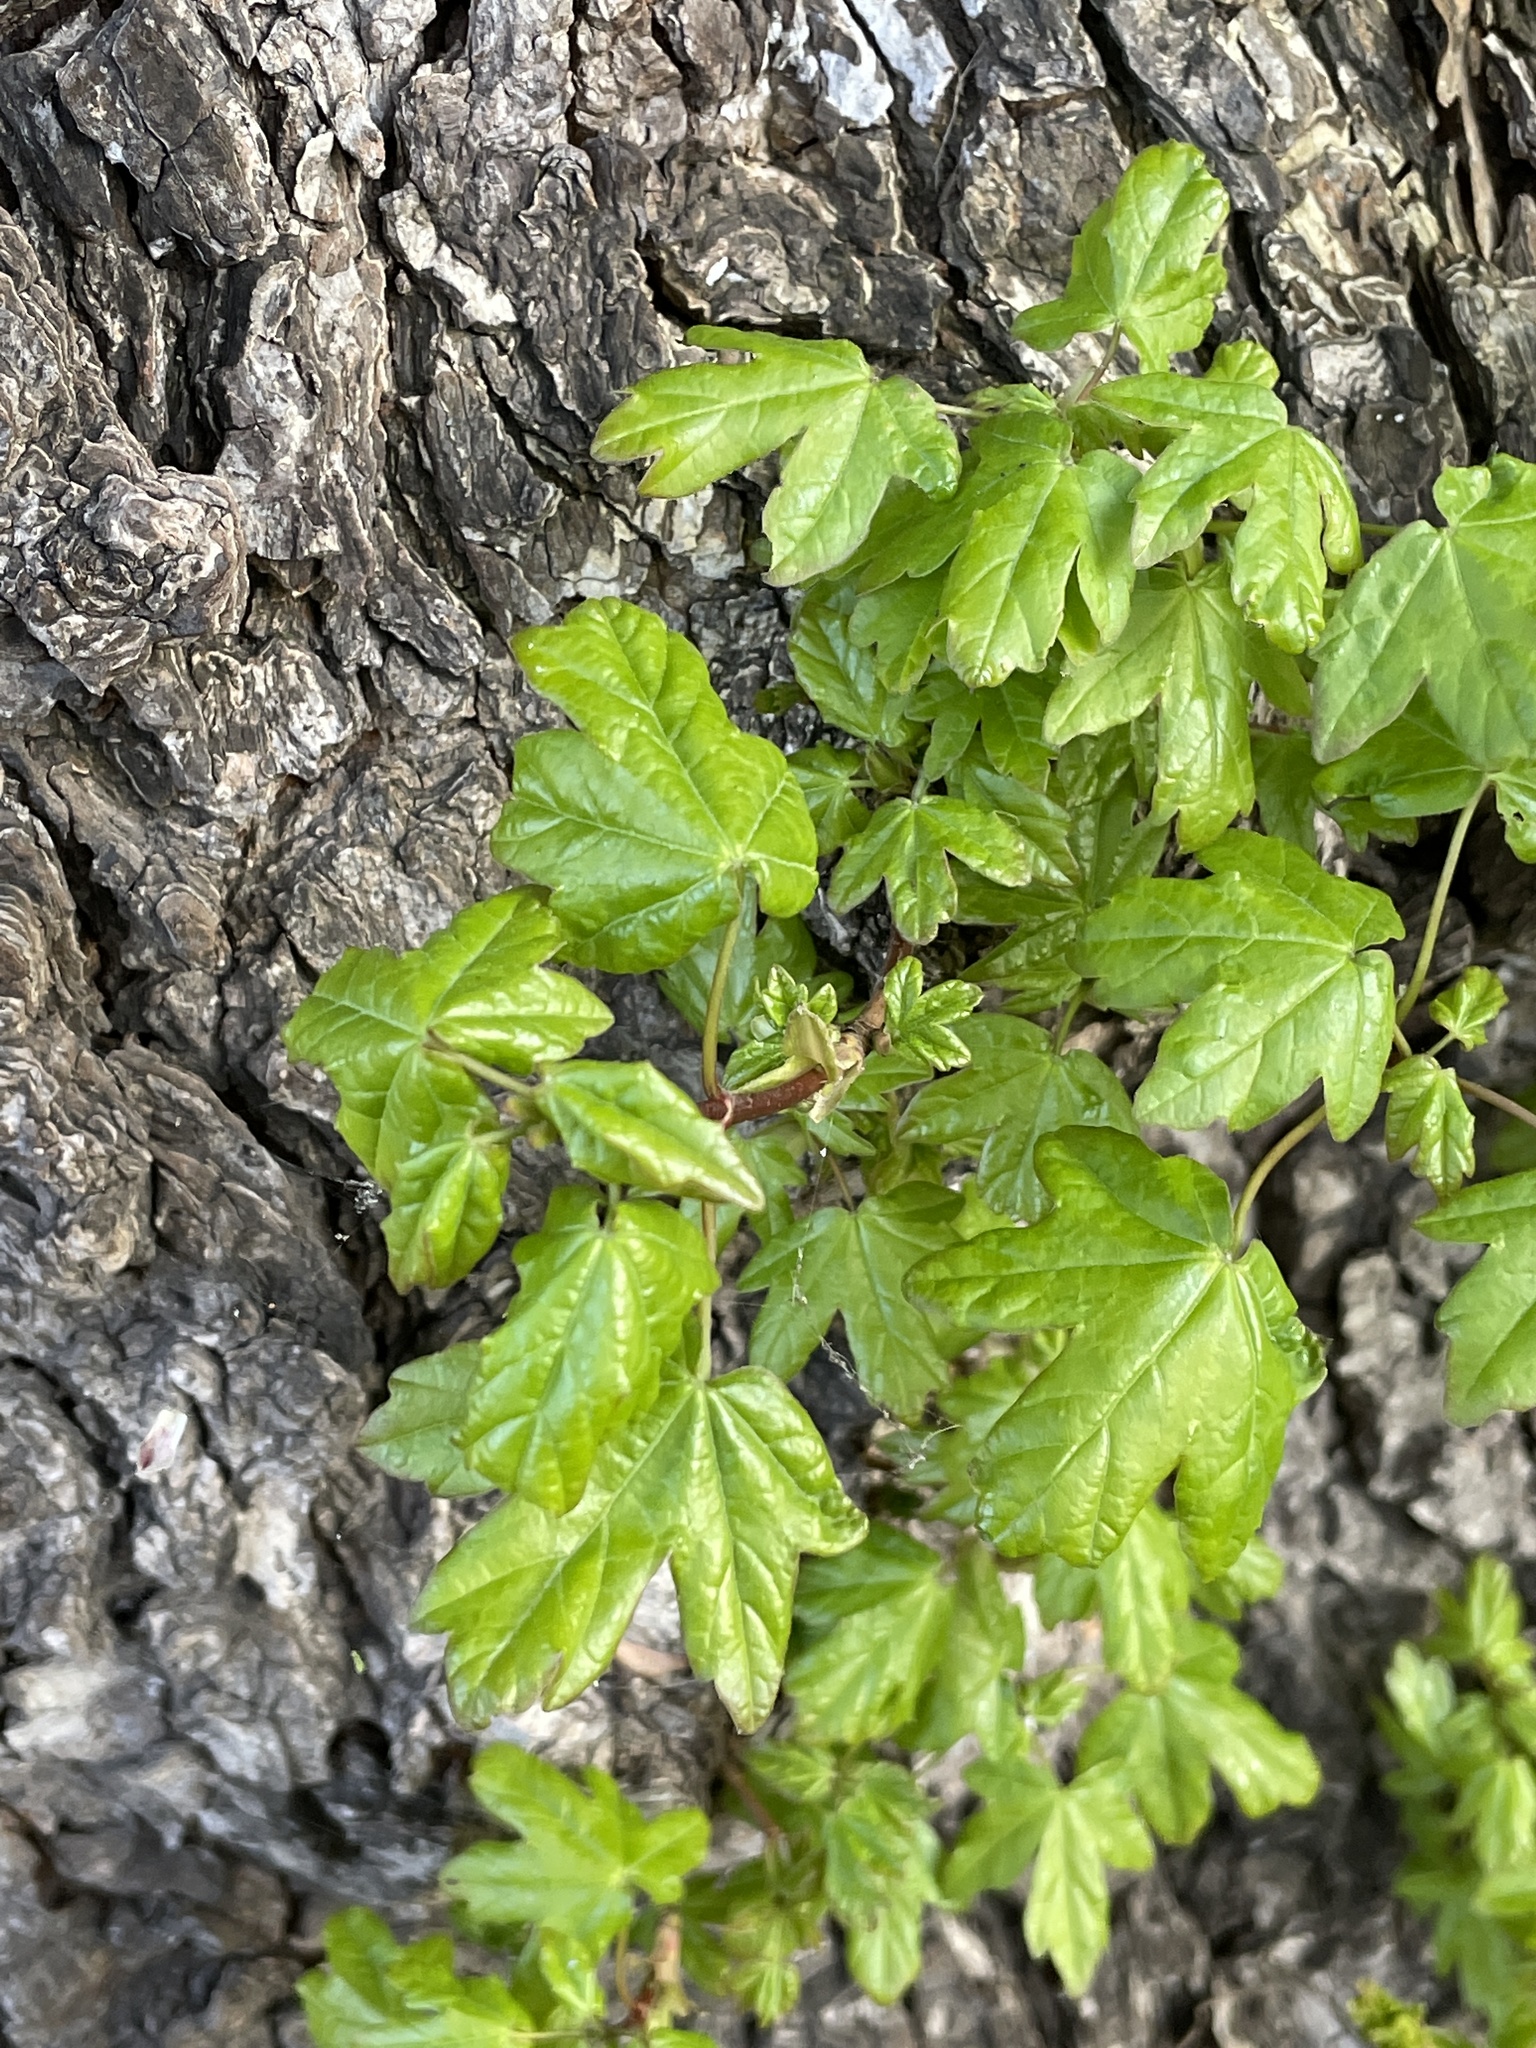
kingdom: Plantae
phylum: Tracheophyta
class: Magnoliopsida
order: Sapindales
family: Sapindaceae
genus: Acer
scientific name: Acer campestre
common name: Field maple
